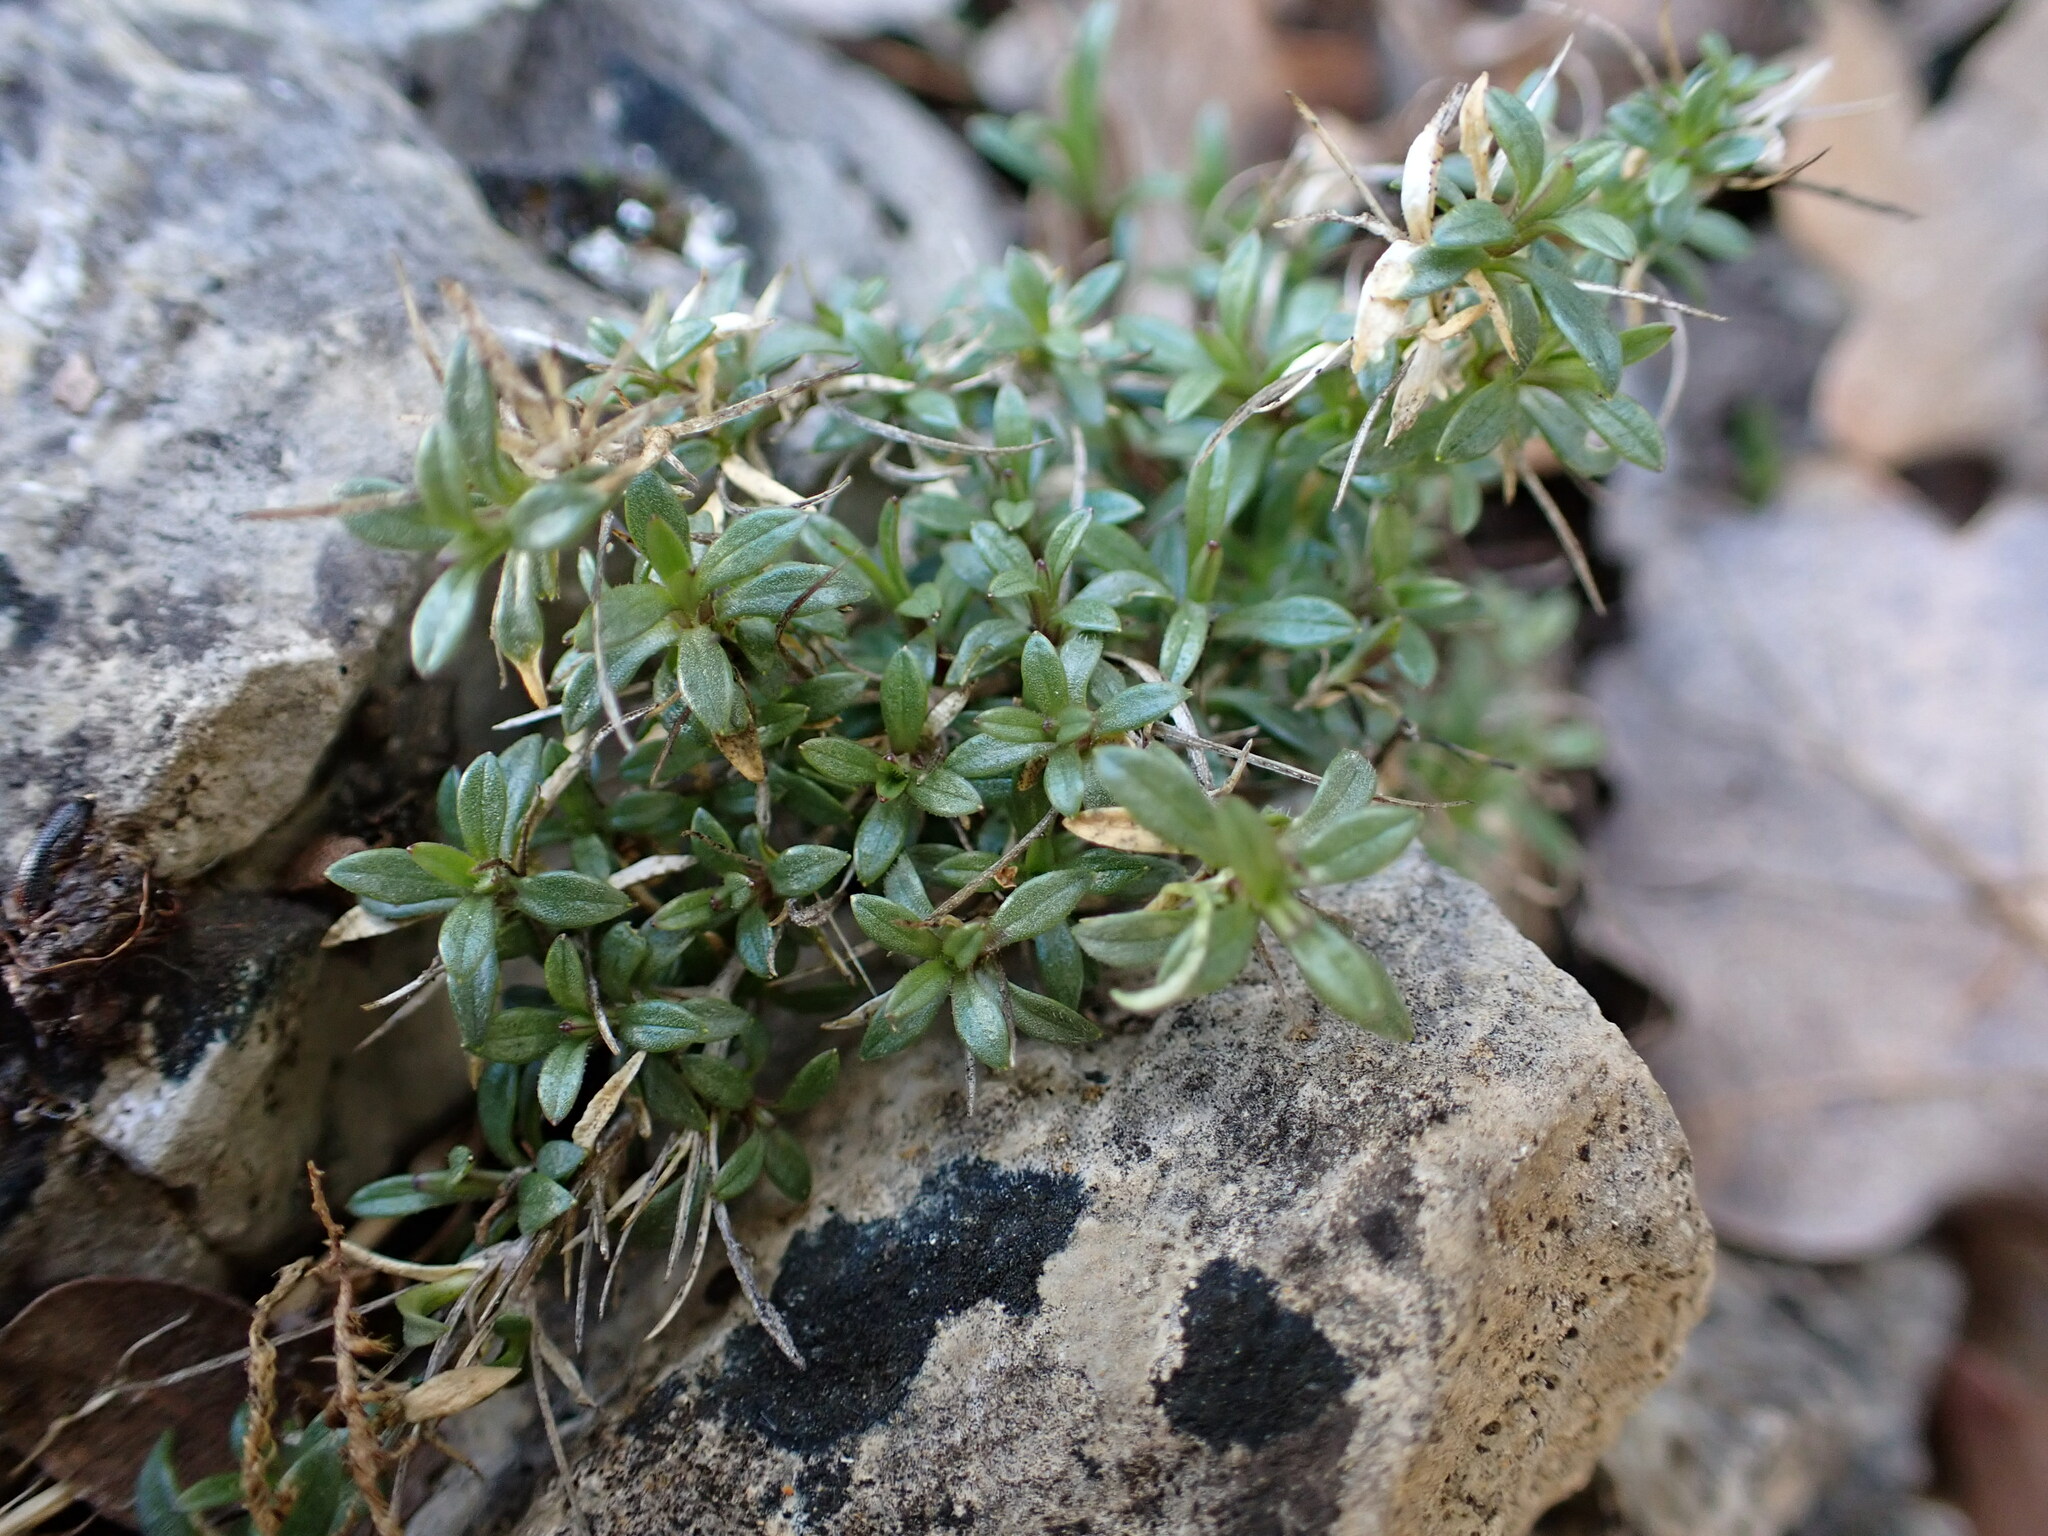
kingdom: Plantae
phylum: Tracheophyta
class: Magnoliopsida
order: Caryophyllales
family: Caryophyllaceae
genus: Cerastium
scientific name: Cerastium arvense
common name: Field mouse-ear
